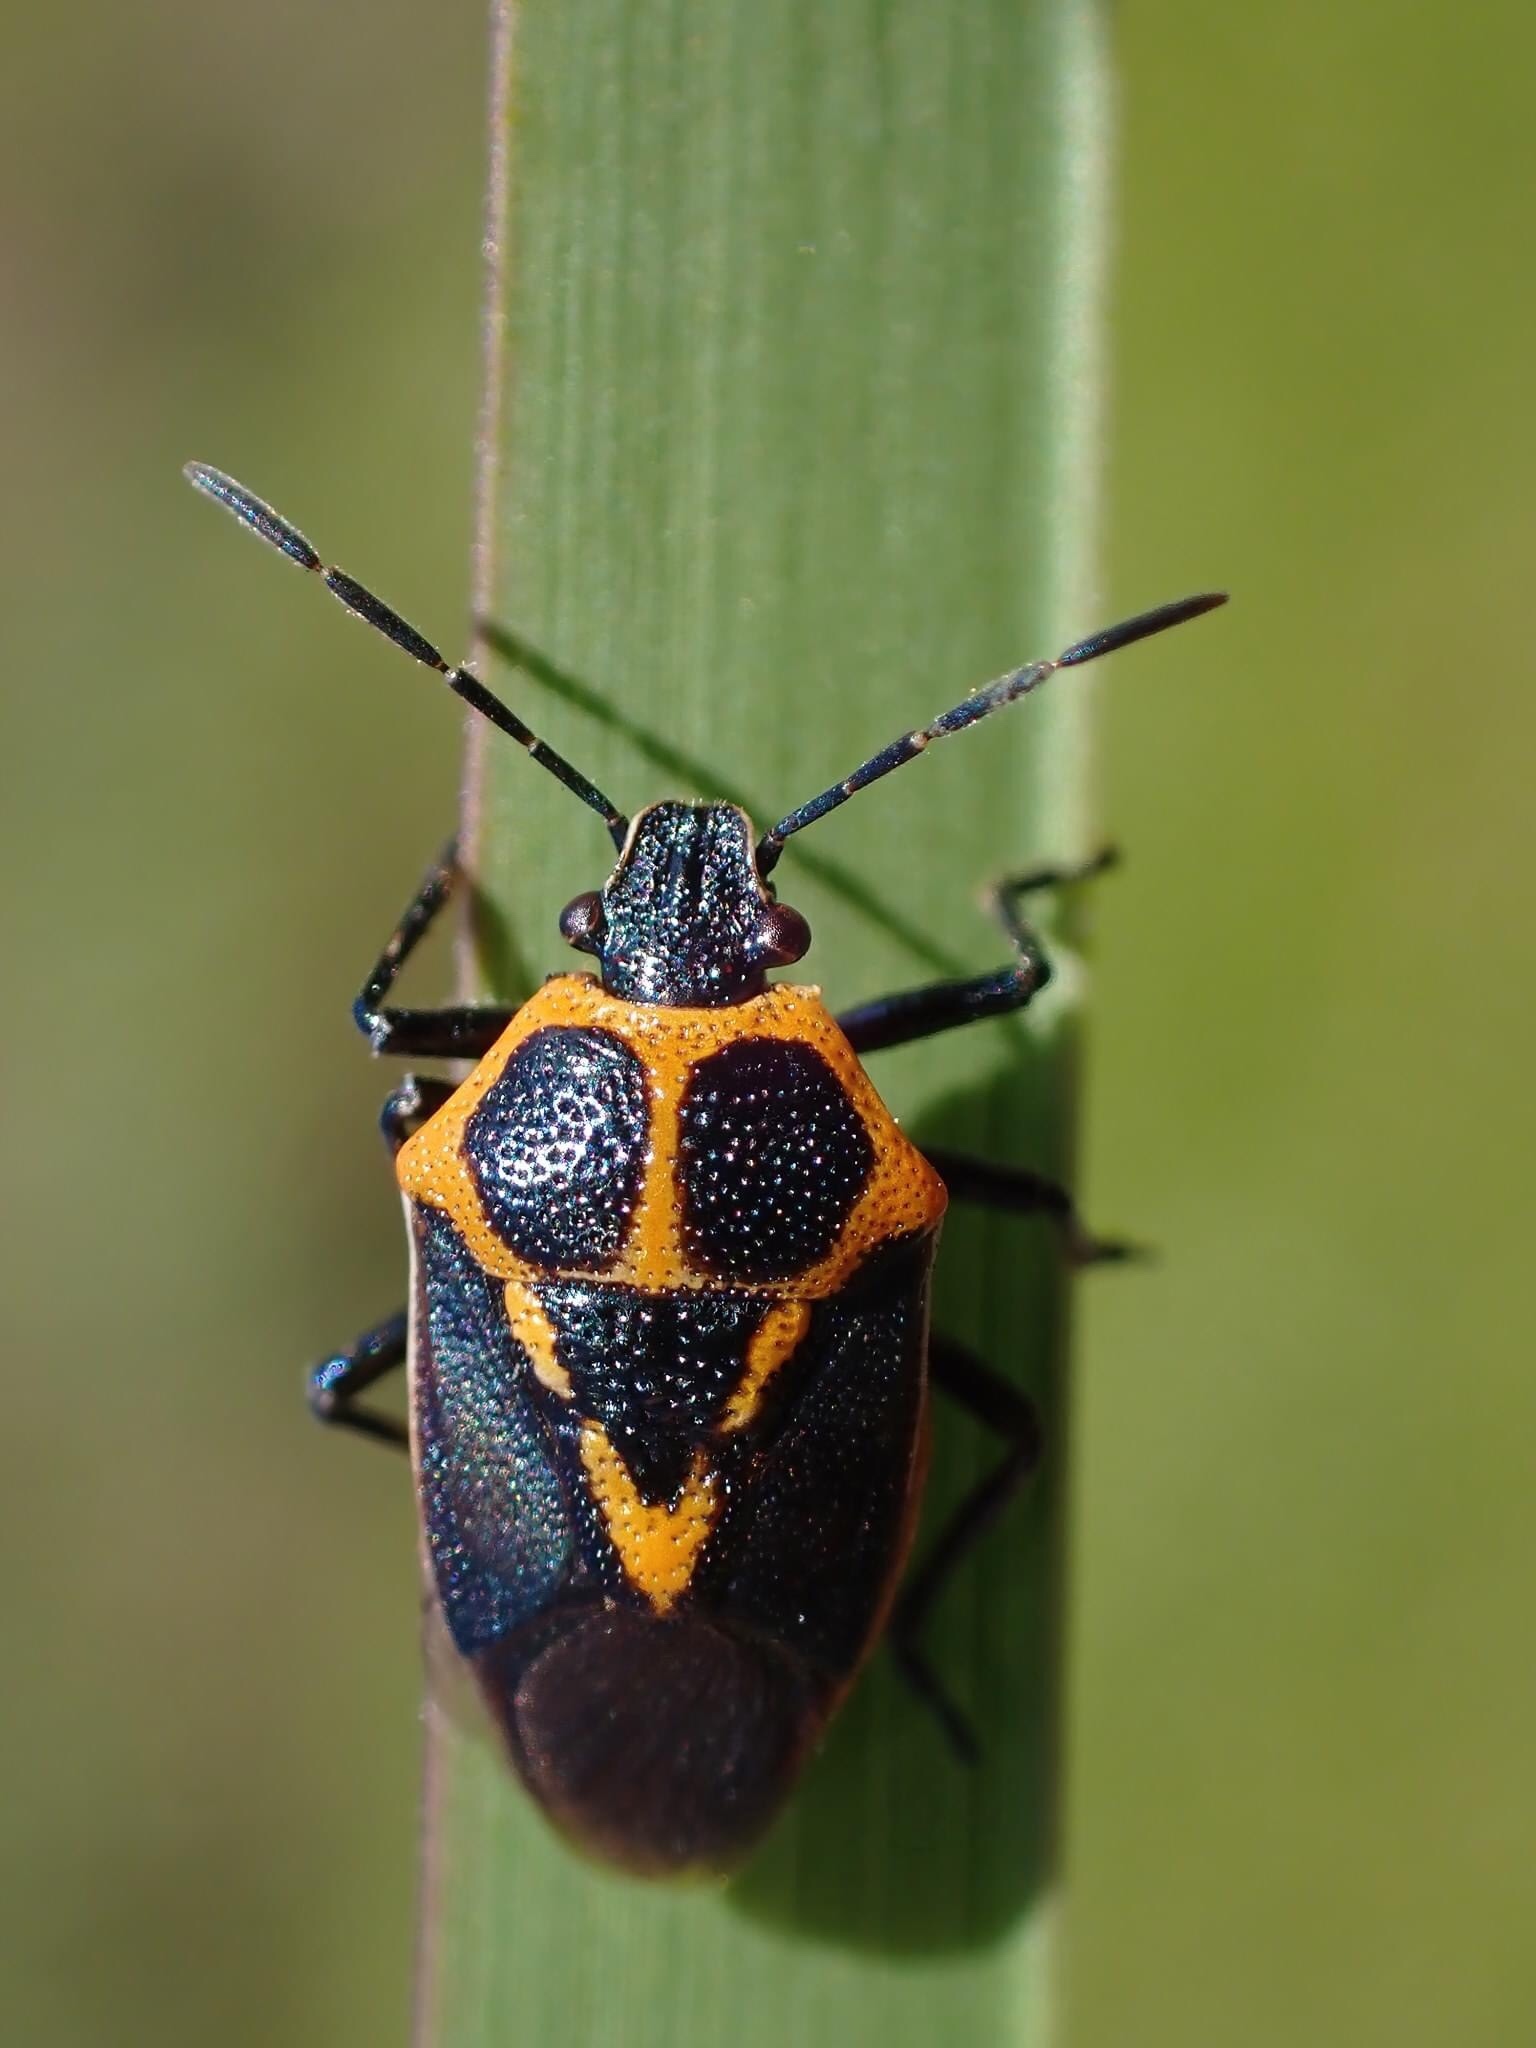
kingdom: Animalia
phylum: Arthropoda
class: Insecta
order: Hemiptera
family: Pentatomidae
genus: Perillus
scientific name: Perillus strigipes
